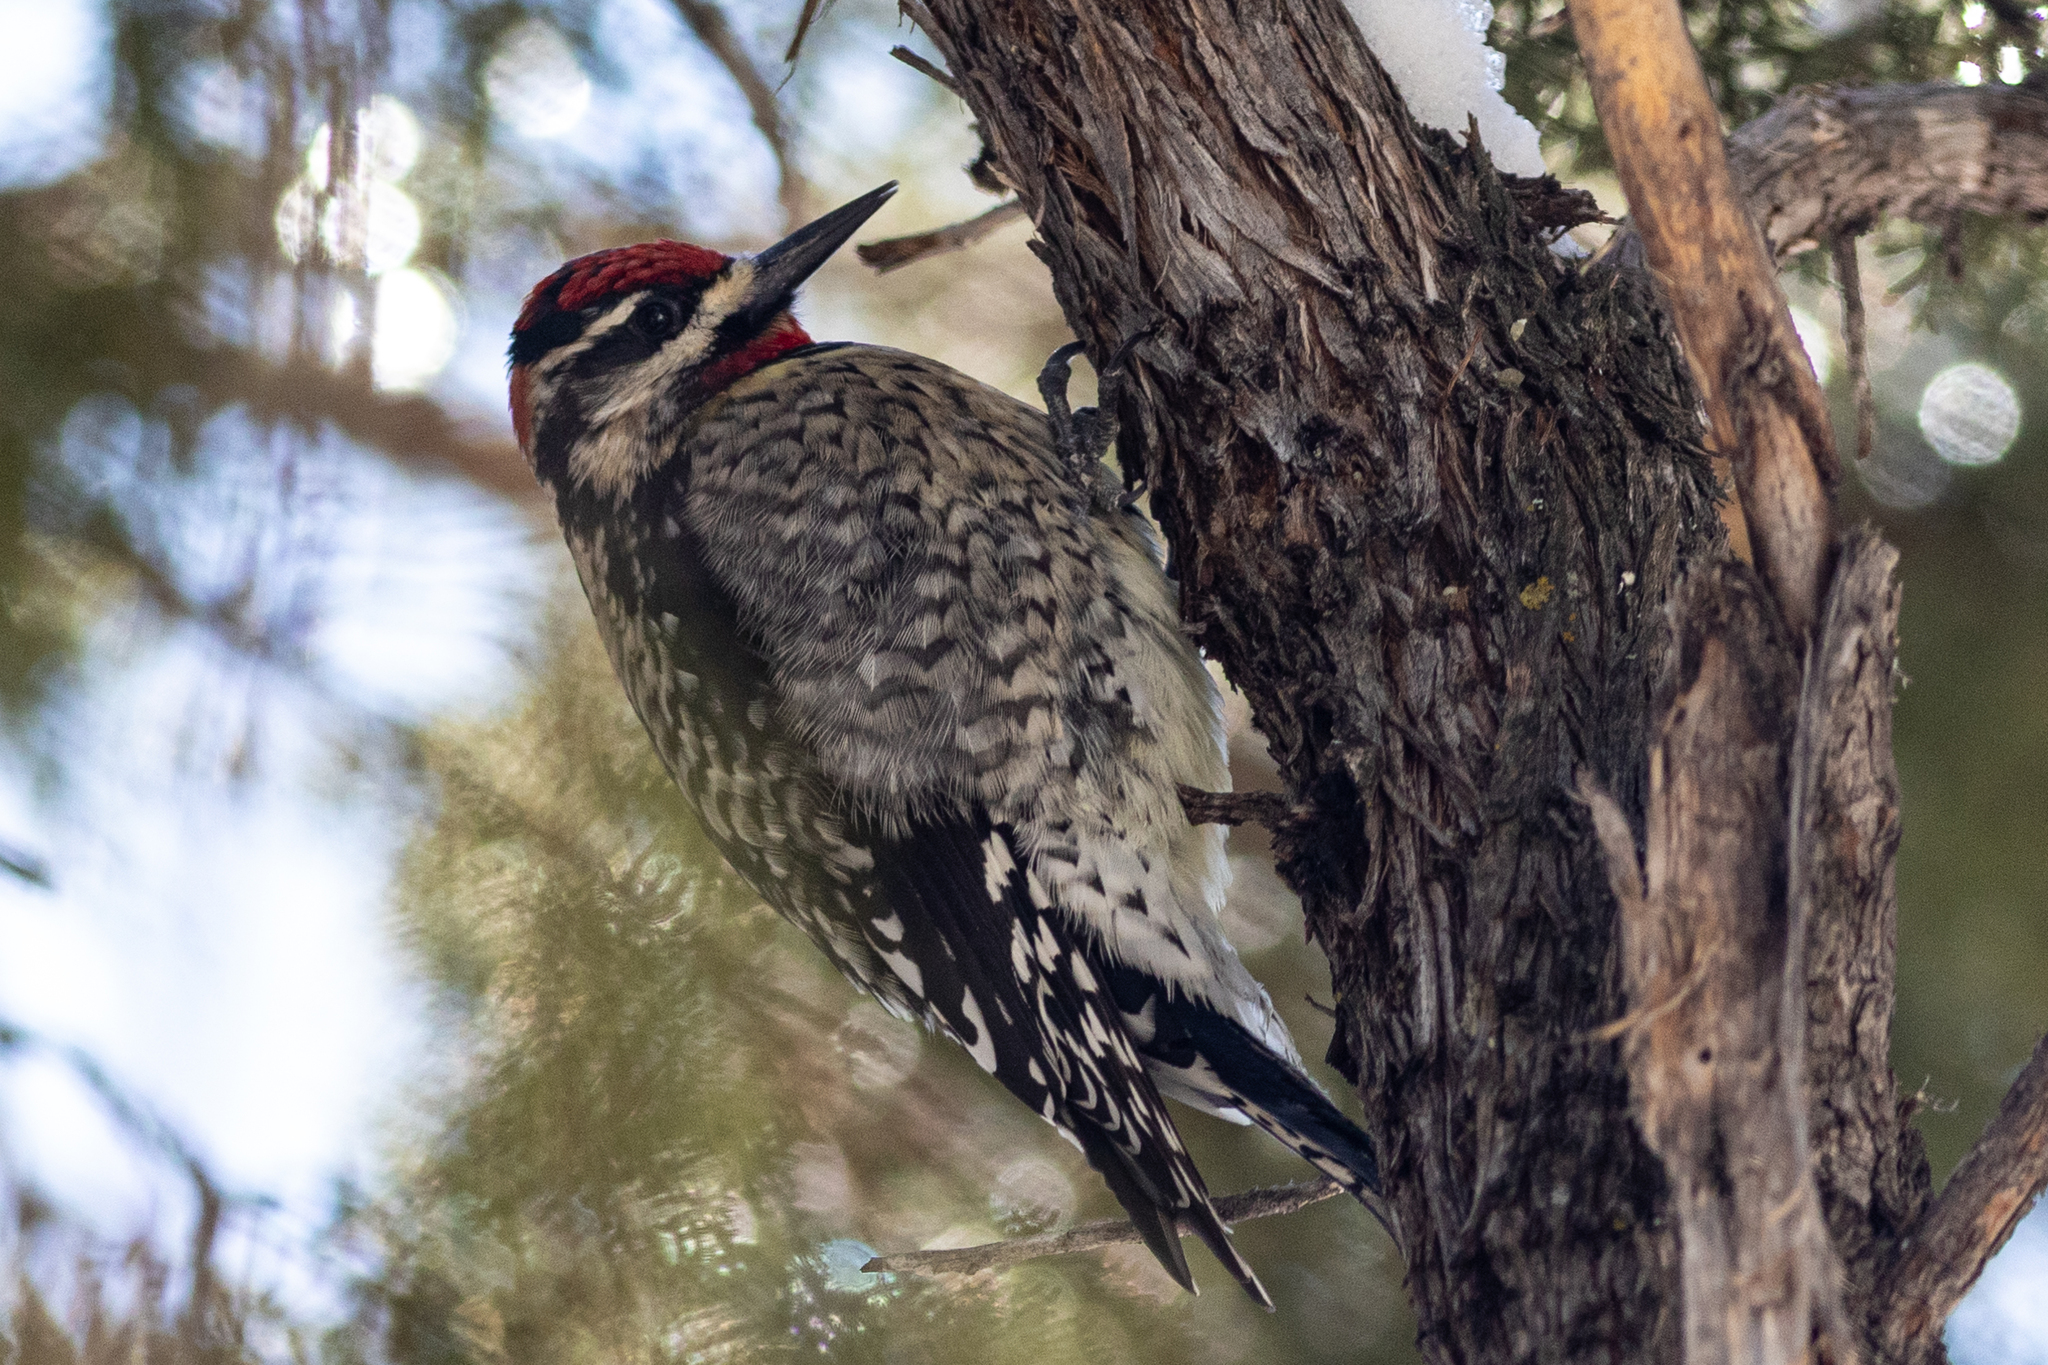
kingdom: Animalia
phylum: Chordata
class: Aves
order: Piciformes
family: Picidae
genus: Sphyrapicus
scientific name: Sphyrapicus nuchalis
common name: Red-naped sapsucker
